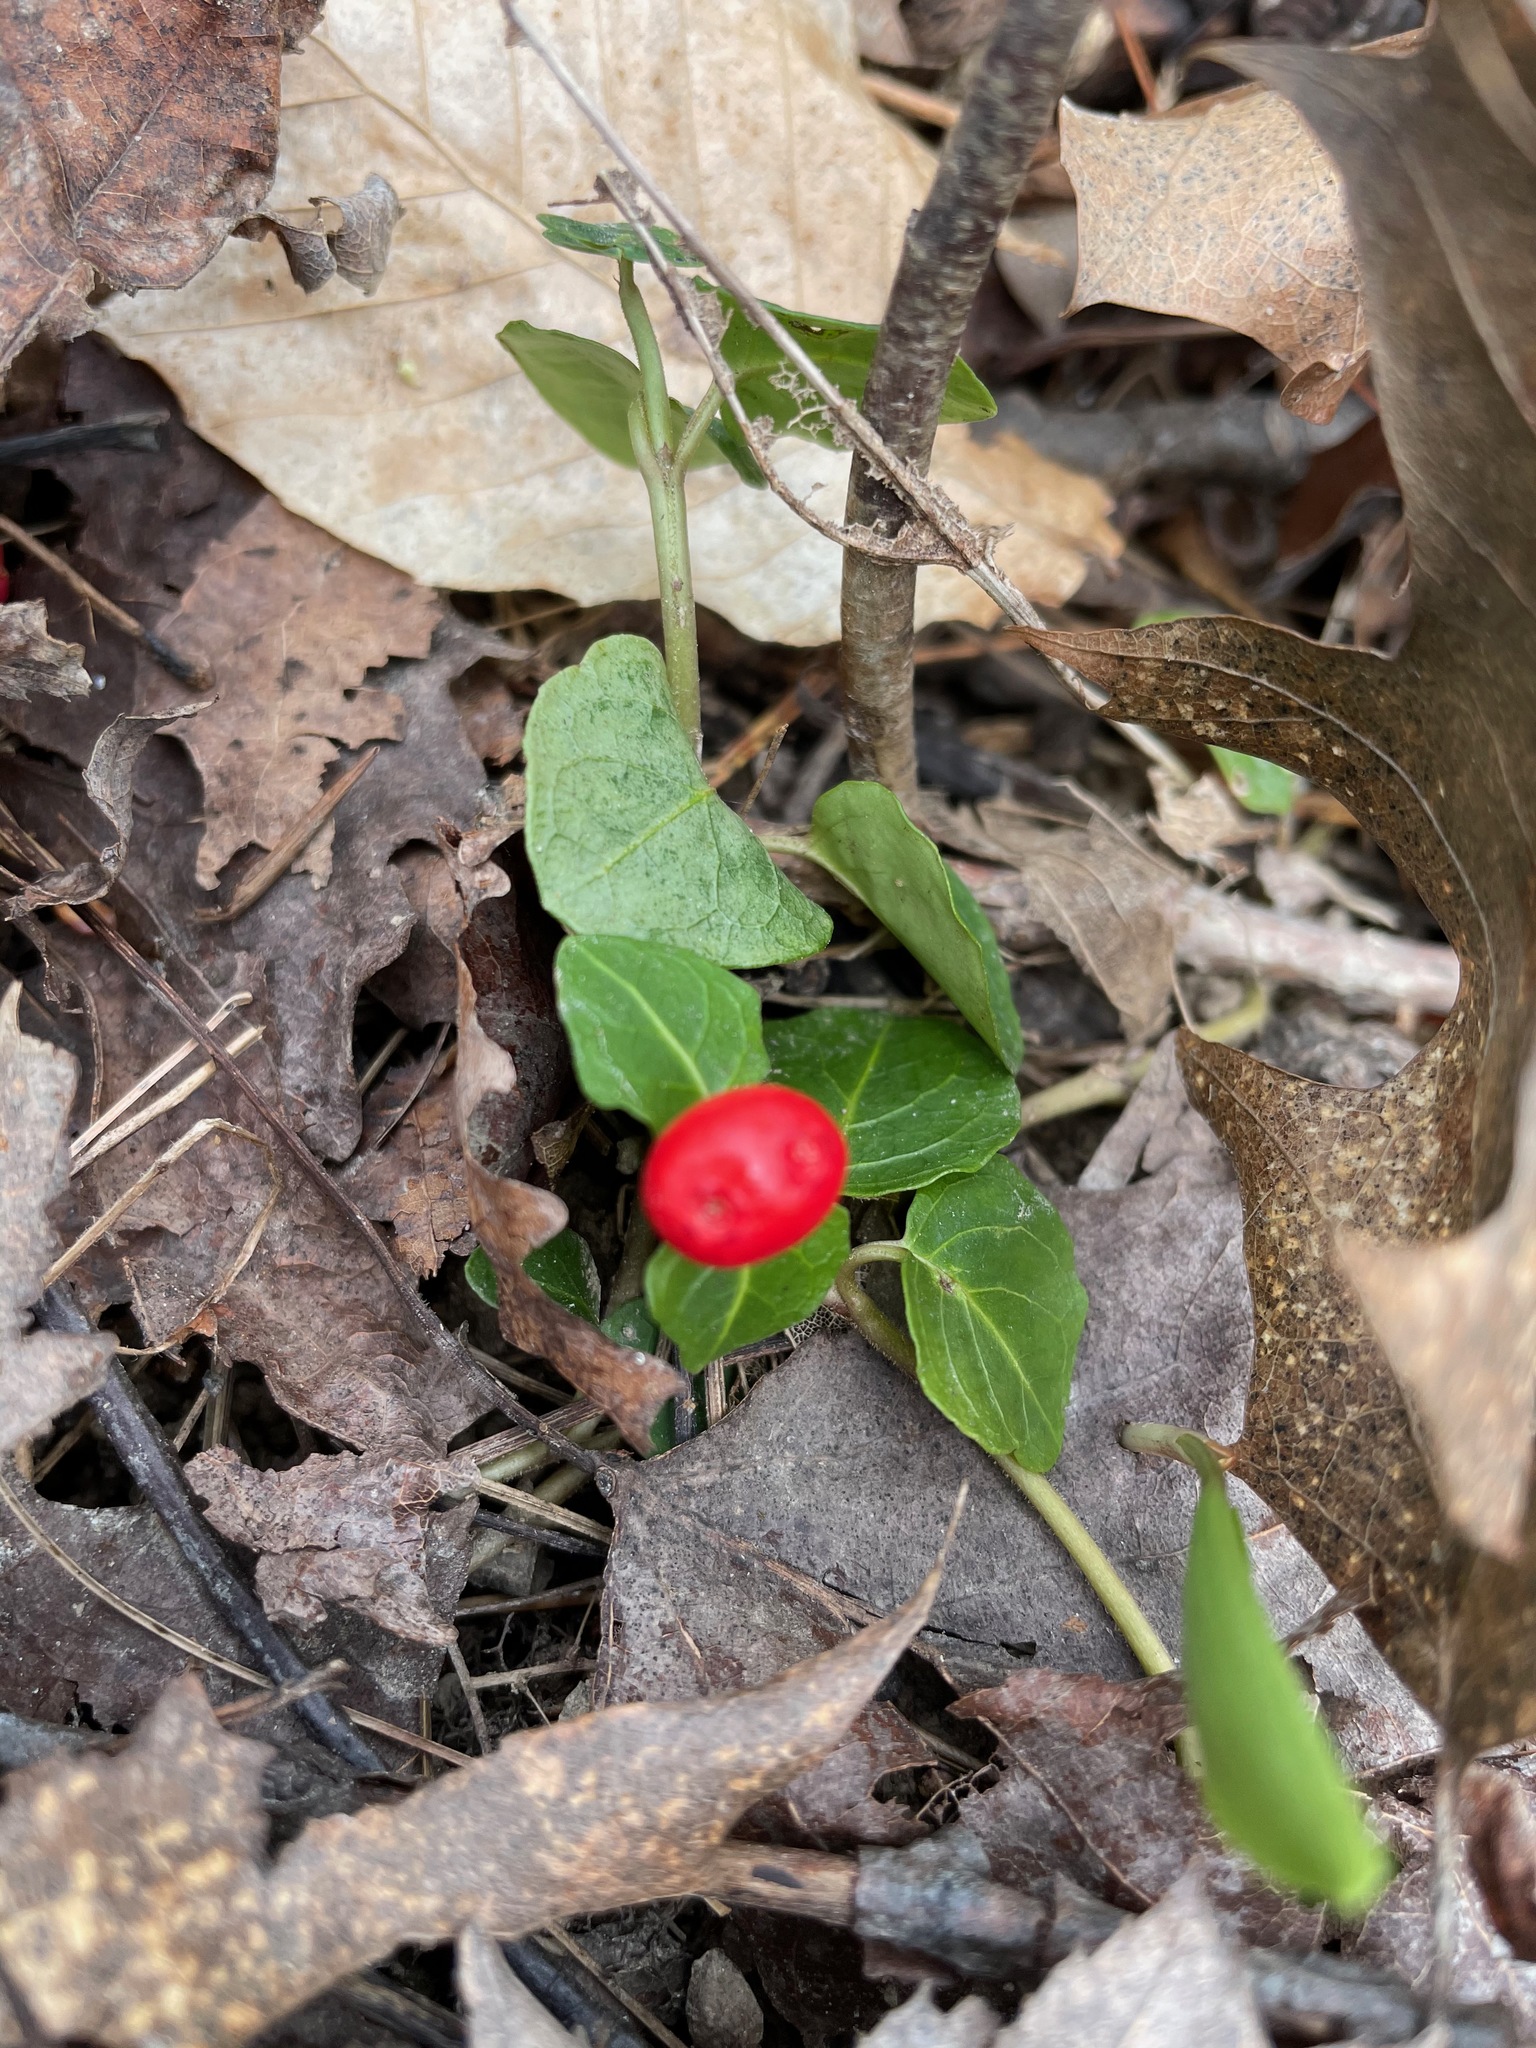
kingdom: Plantae
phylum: Tracheophyta
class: Magnoliopsida
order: Gentianales
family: Rubiaceae
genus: Mitchella
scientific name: Mitchella repens
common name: Partridge-berry
